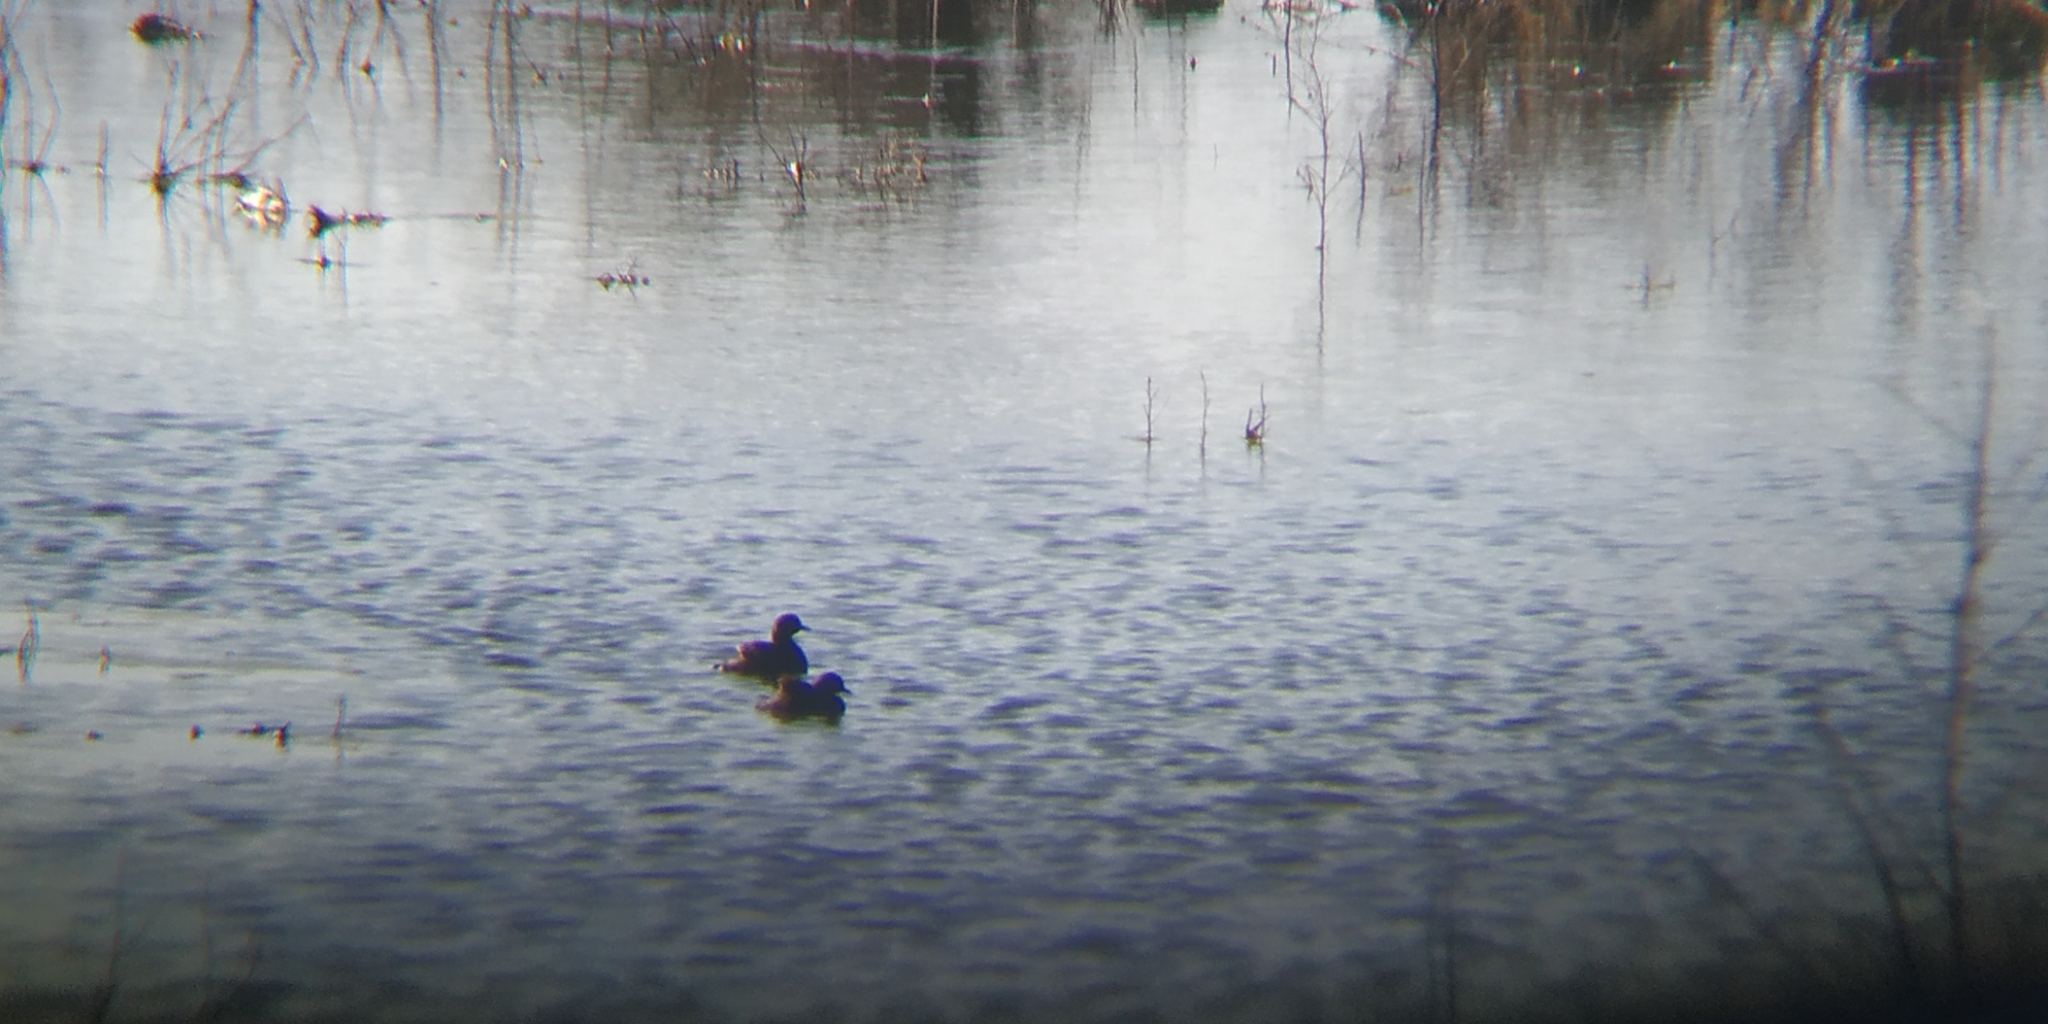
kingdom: Animalia
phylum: Chordata
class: Aves
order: Podicipediformes
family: Podicipedidae
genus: Tachybaptus
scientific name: Tachybaptus dominicus
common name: Least grebe
